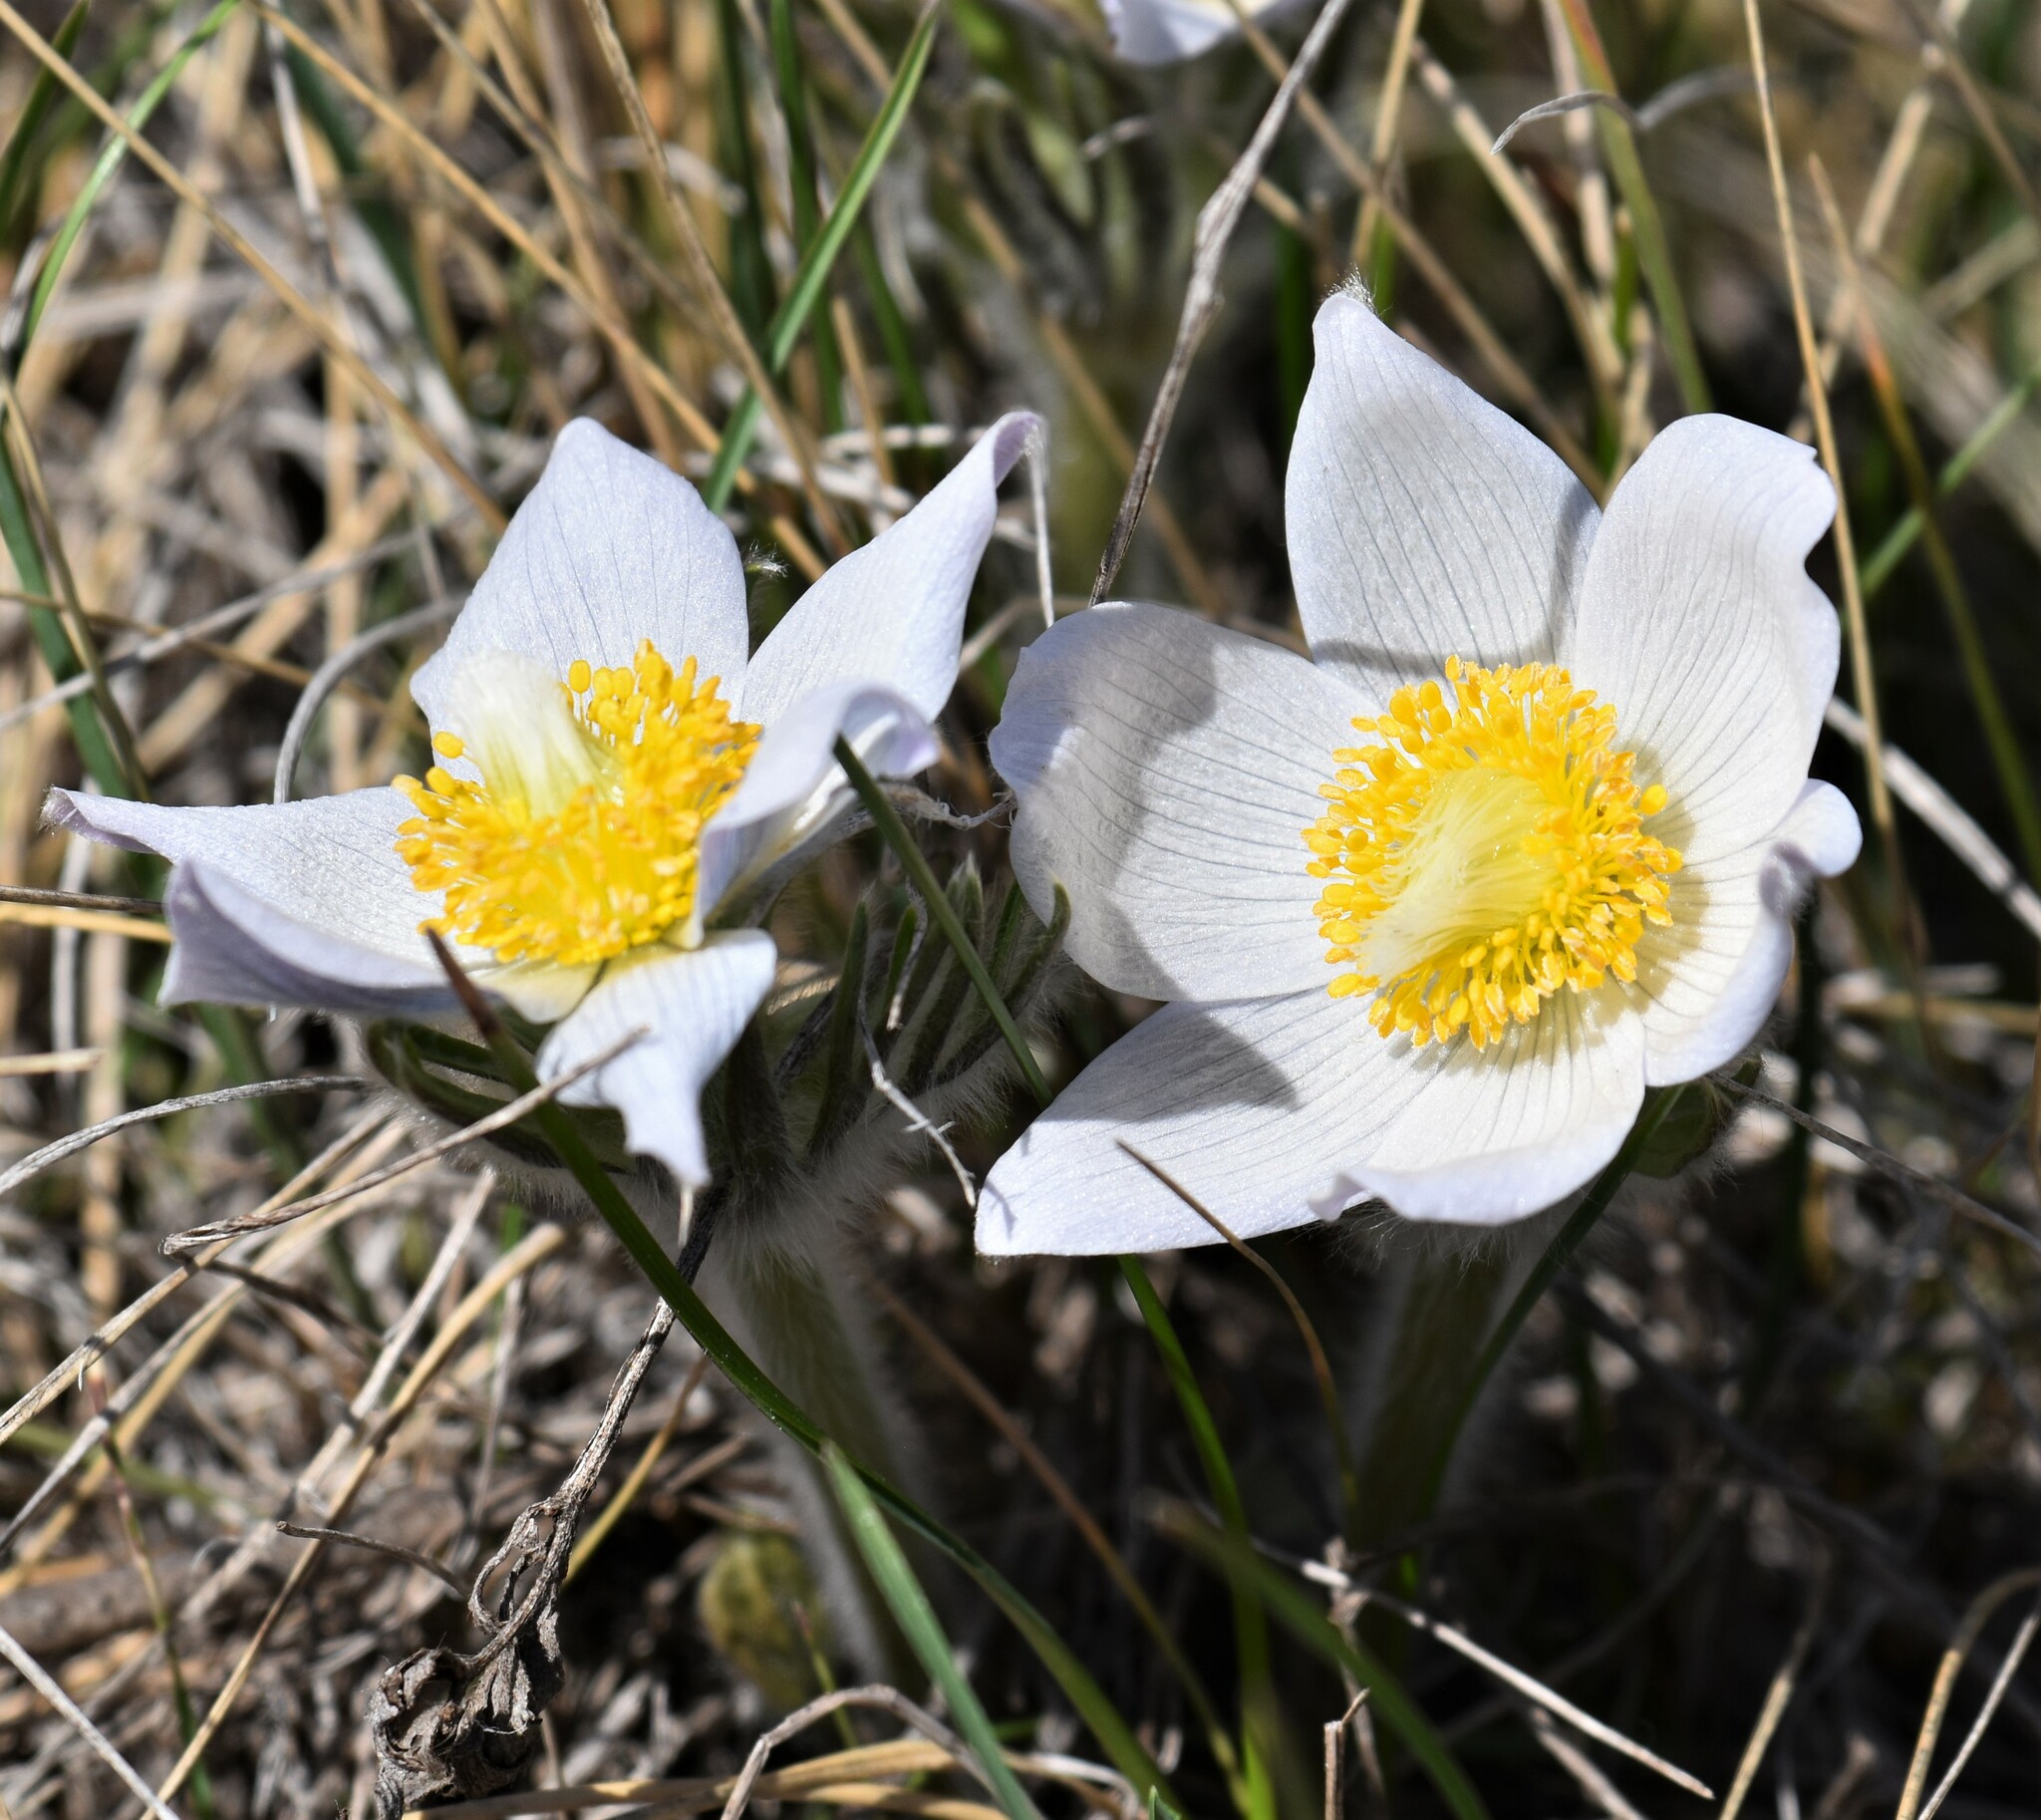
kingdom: Plantae
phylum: Tracheophyta
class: Magnoliopsida
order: Ranunculales
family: Ranunculaceae
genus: Pulsatilla
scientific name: Pulsatilla nuttalliana
